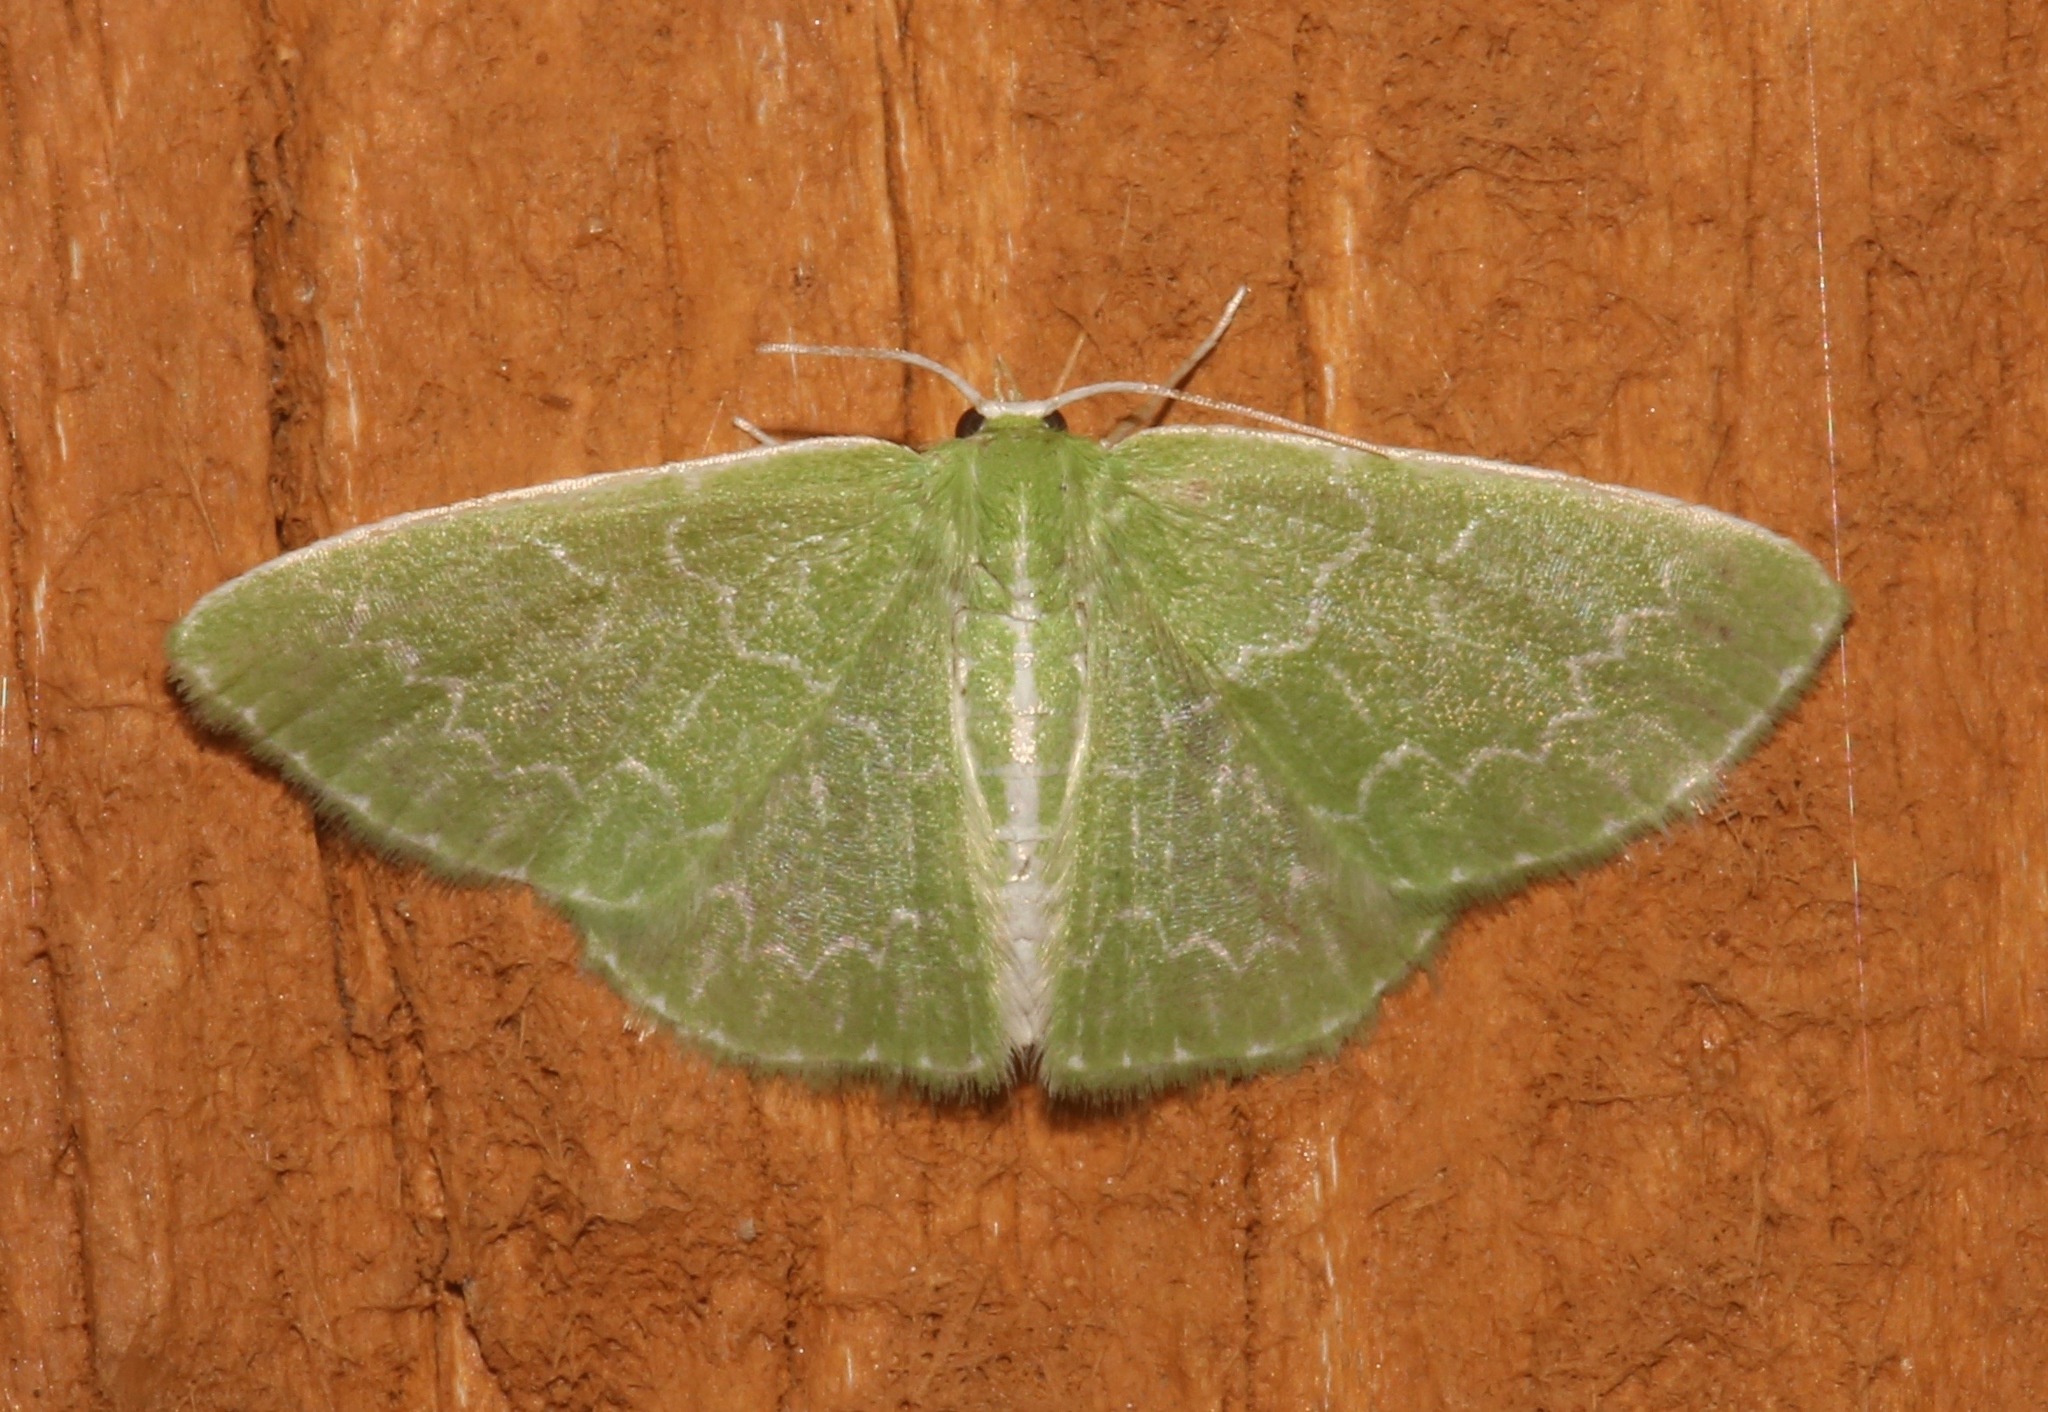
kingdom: Animalia
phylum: Arthropoda
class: Insecta
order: Lepidoptera
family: Geometridae
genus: Synchlora
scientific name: Synchlora frondaria
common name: Southern emerald
